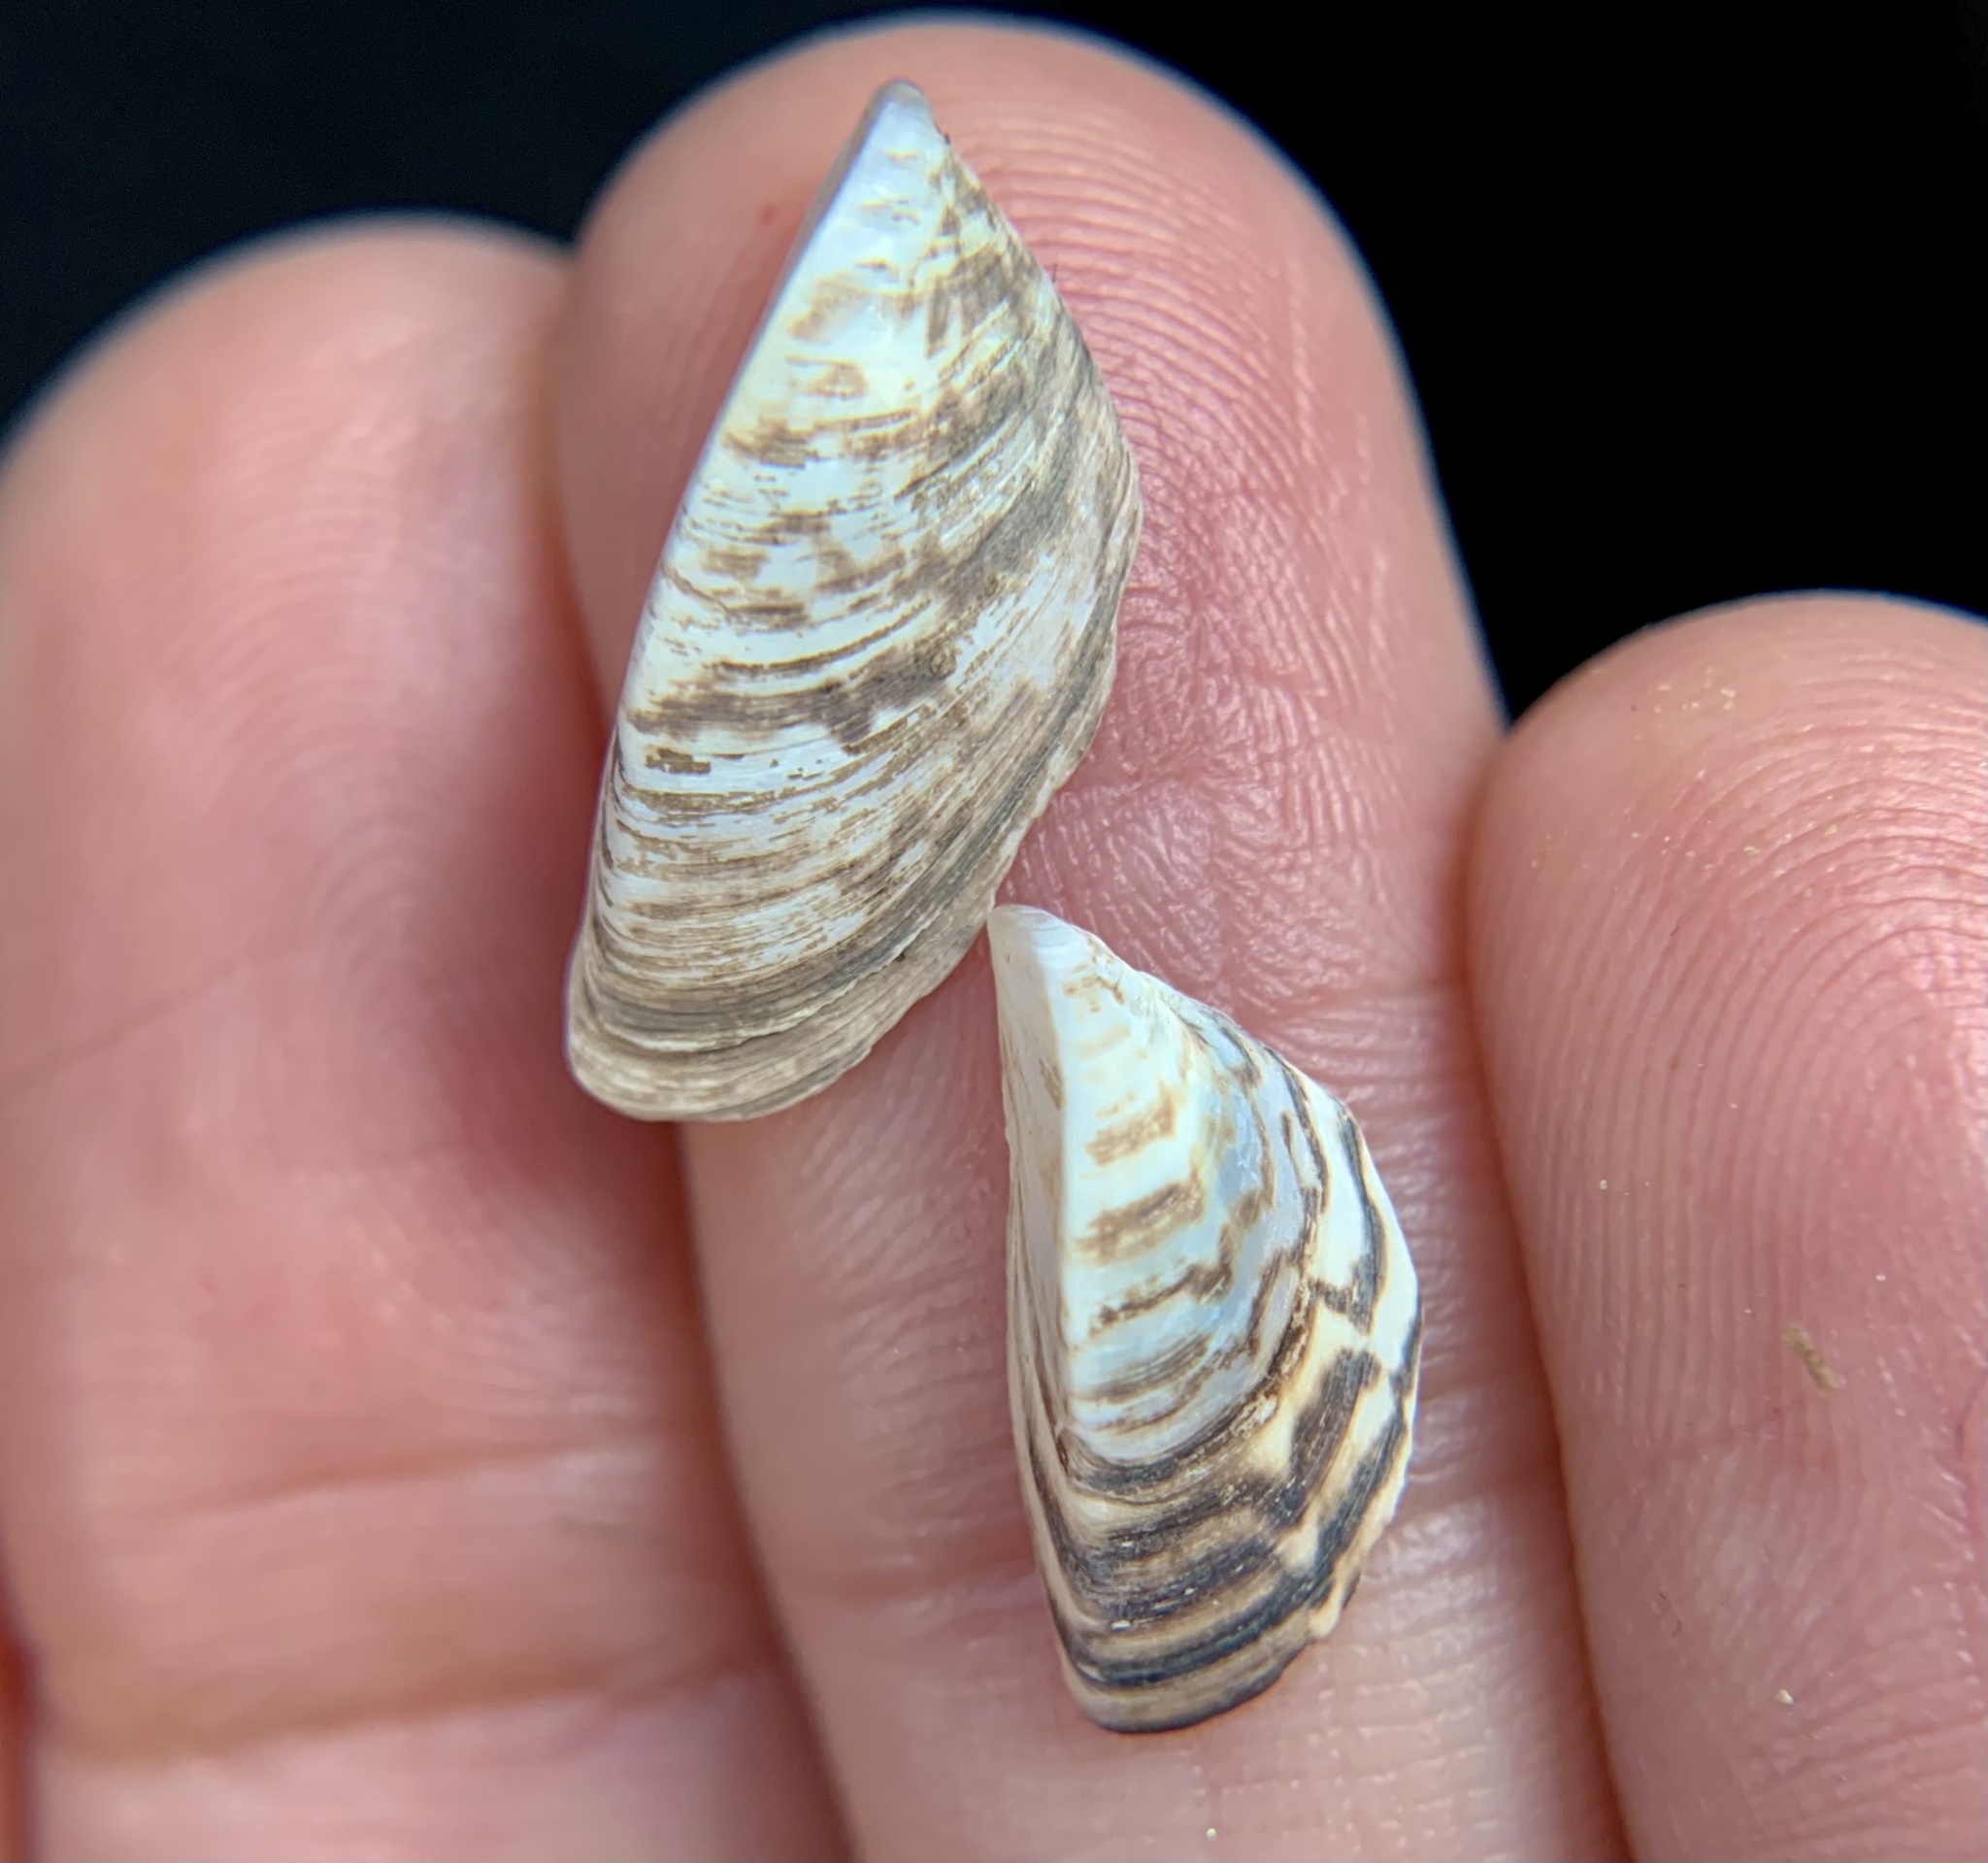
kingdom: Animalia
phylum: Mollusca
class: Bivalvia
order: Myida
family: Dreissenidae
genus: Dreissena
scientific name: Dreissena polymorpha
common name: Zebra mussel
